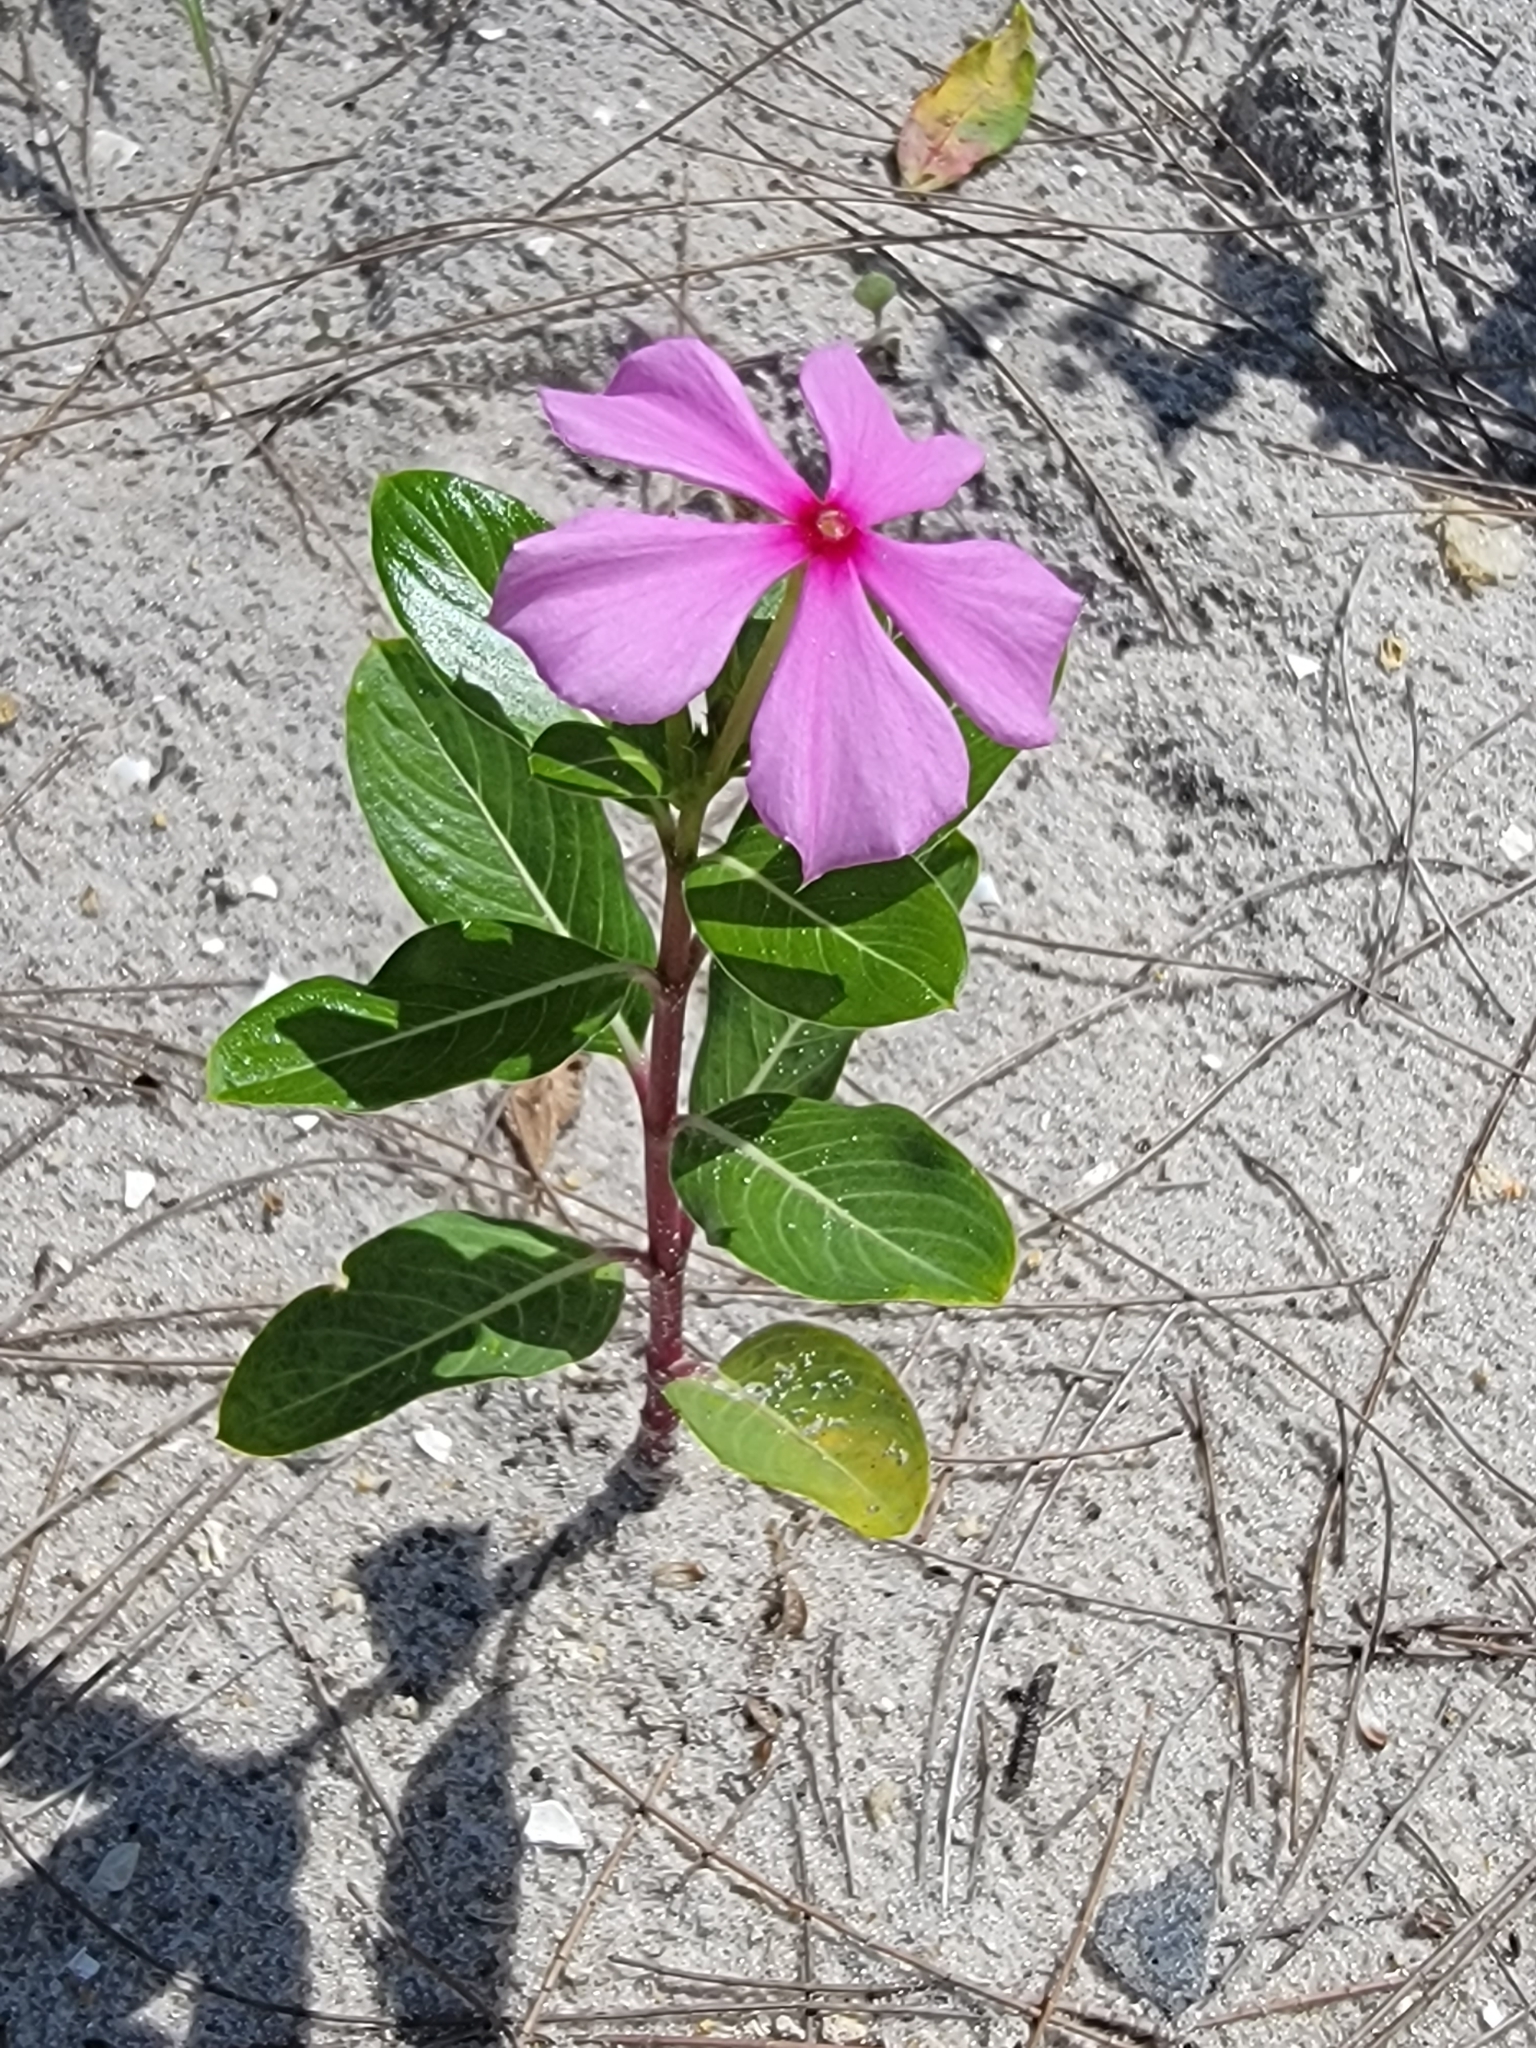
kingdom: Plantae
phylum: Tracheophyta
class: Magnoliopsida
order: Gentianales
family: Apocynaceae
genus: Catharanthus
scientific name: Catharanthus roseus
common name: Madagascar periwinkle
